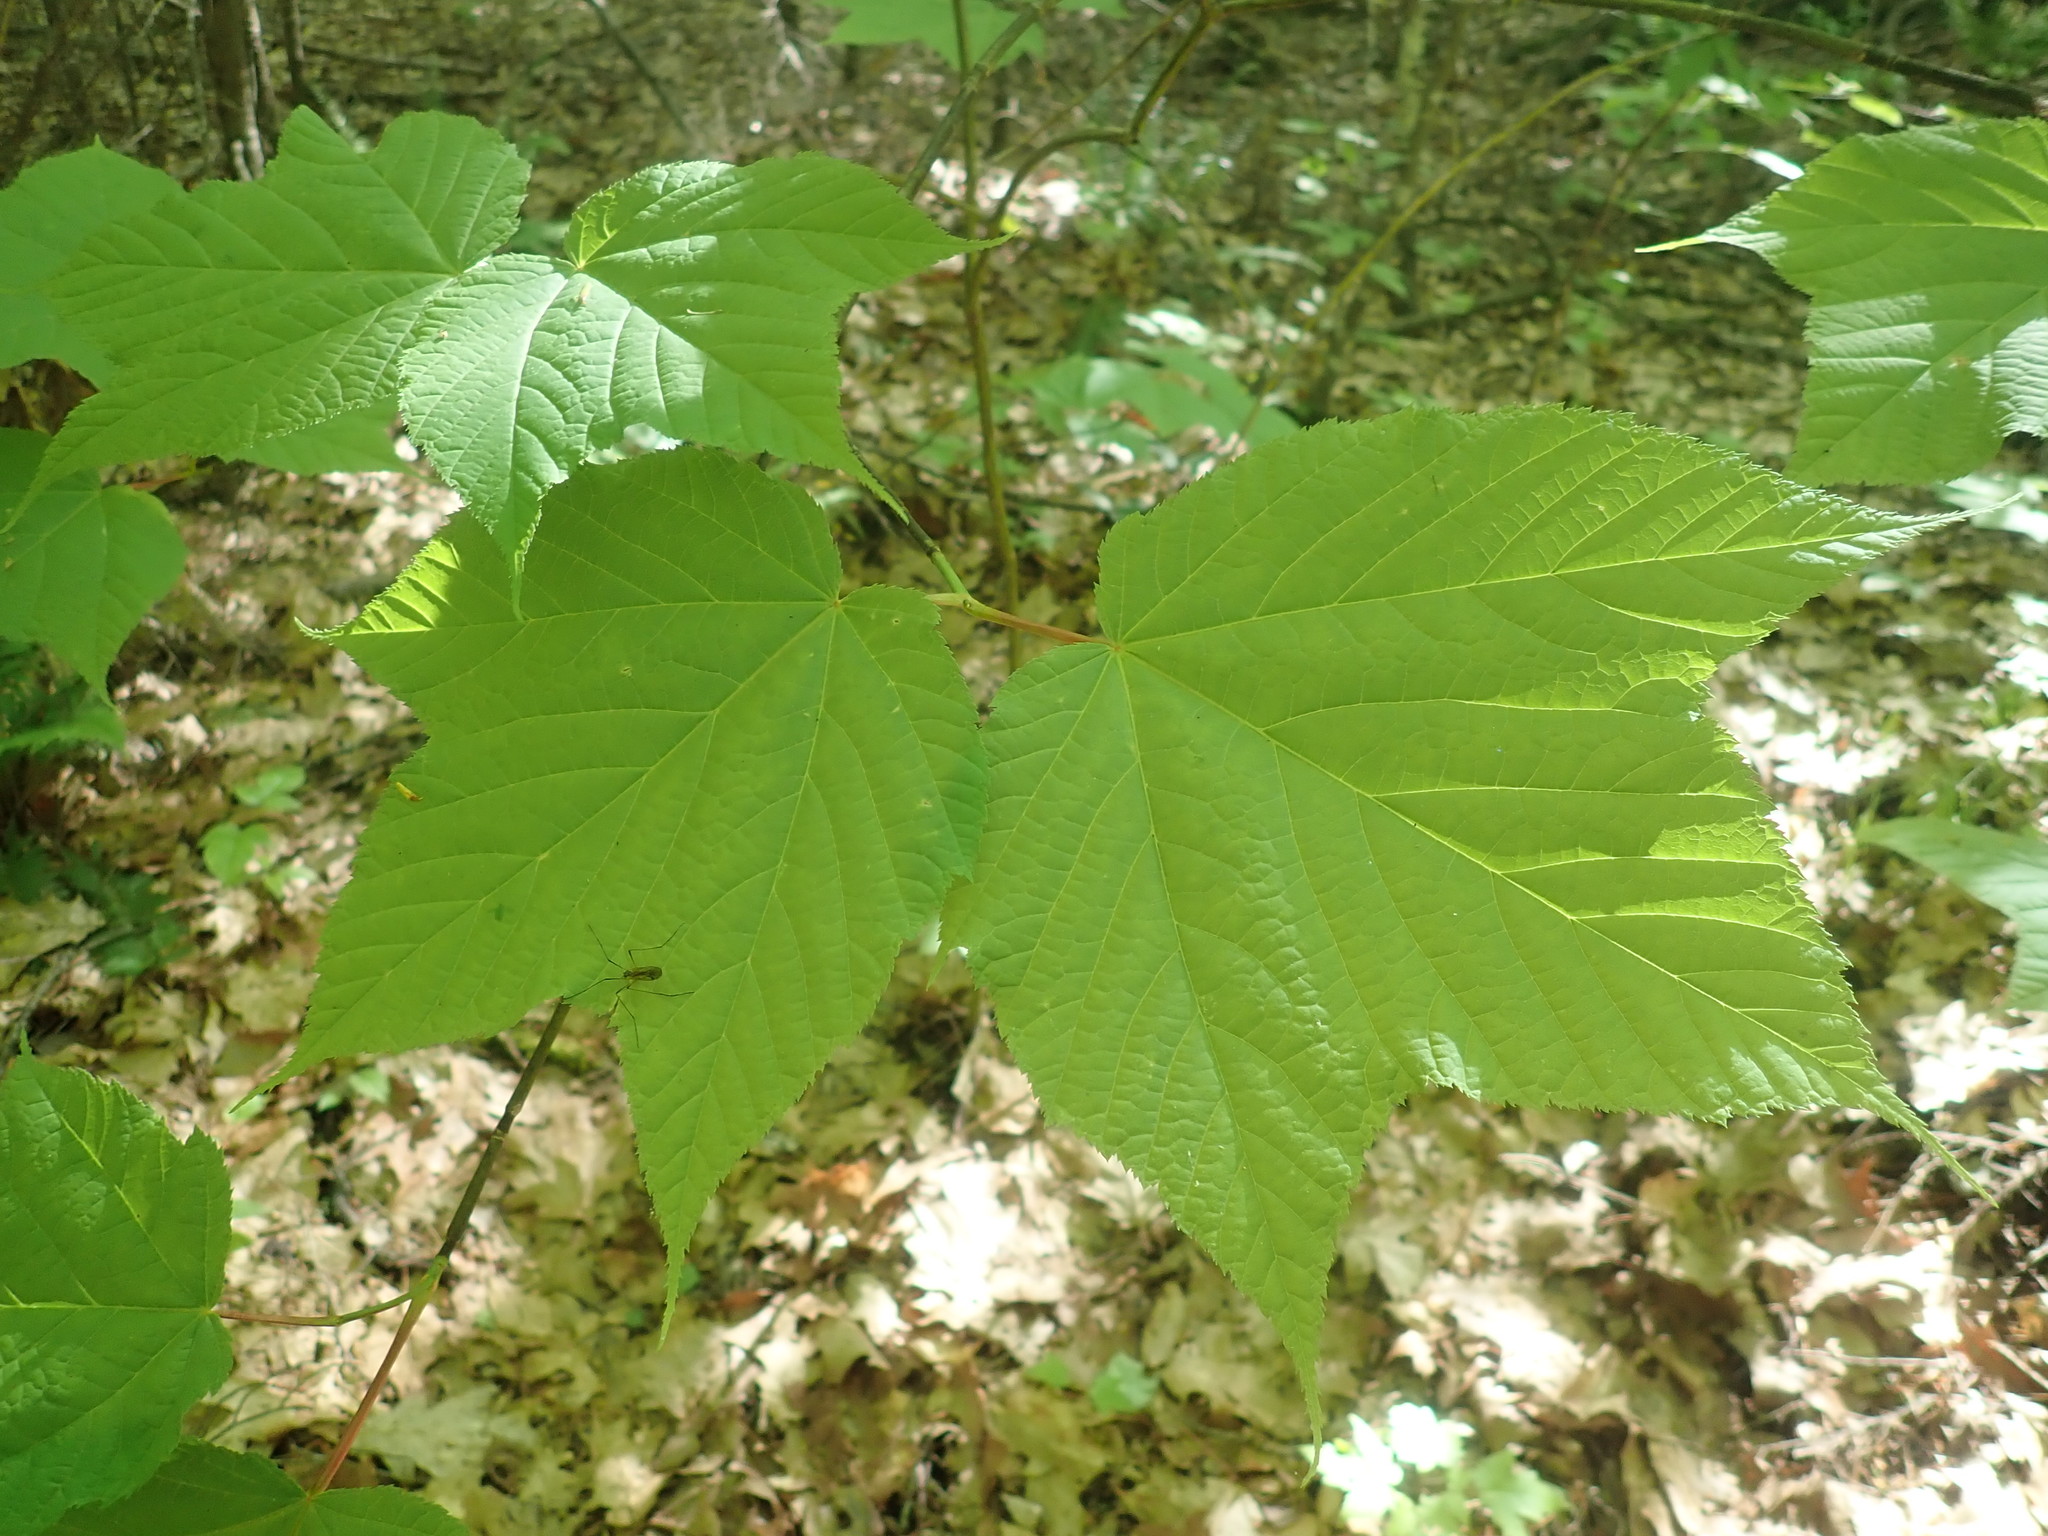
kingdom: Plantae
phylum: Tracheophyta
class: Magnoliopsida
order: Sapindales
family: Sapindaceae
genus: Acer
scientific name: Acer pensylvanicum
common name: Moosewood
